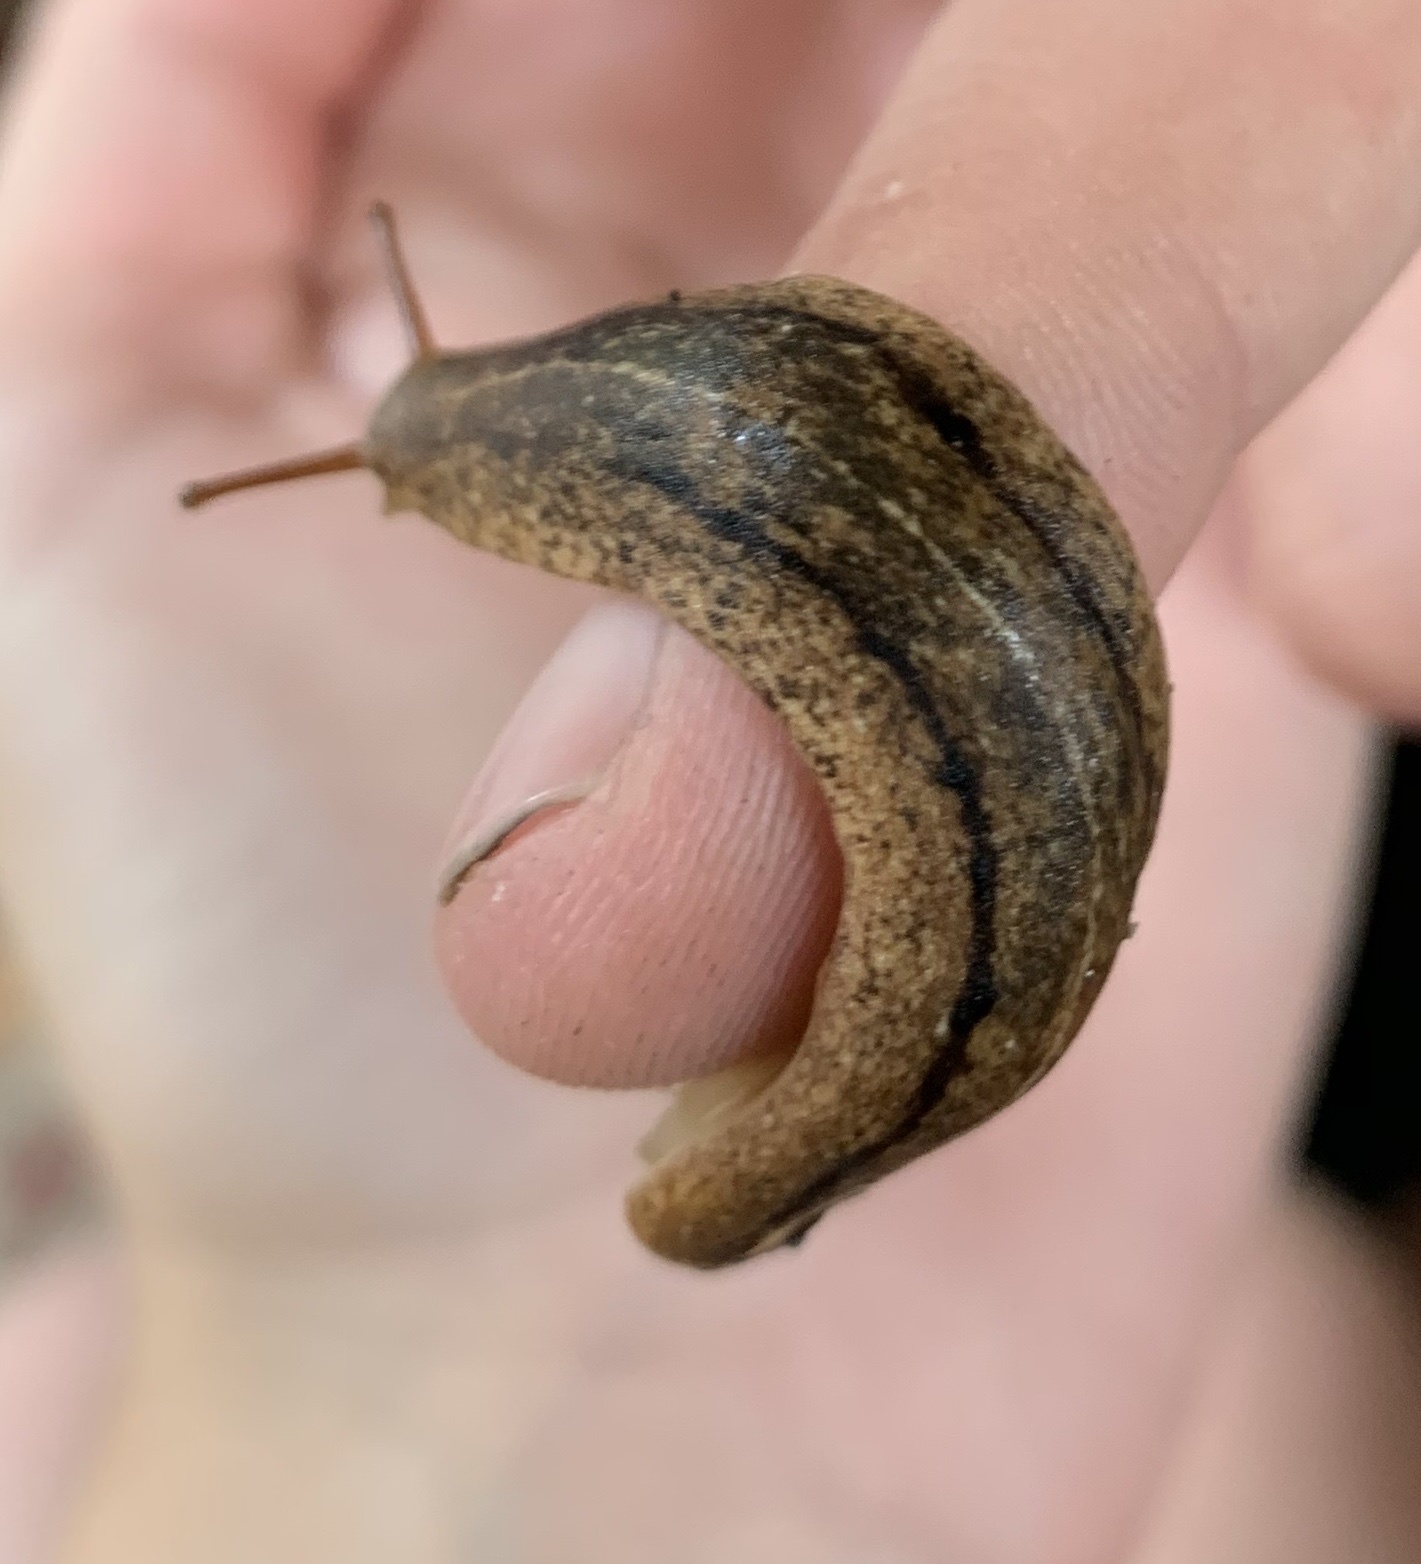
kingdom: Animalia
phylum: Mollusca
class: Gastropoda
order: Systellommatophora
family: Veronicellidae
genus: Veronicella
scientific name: Veronicella cubensis
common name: Two striped slug
